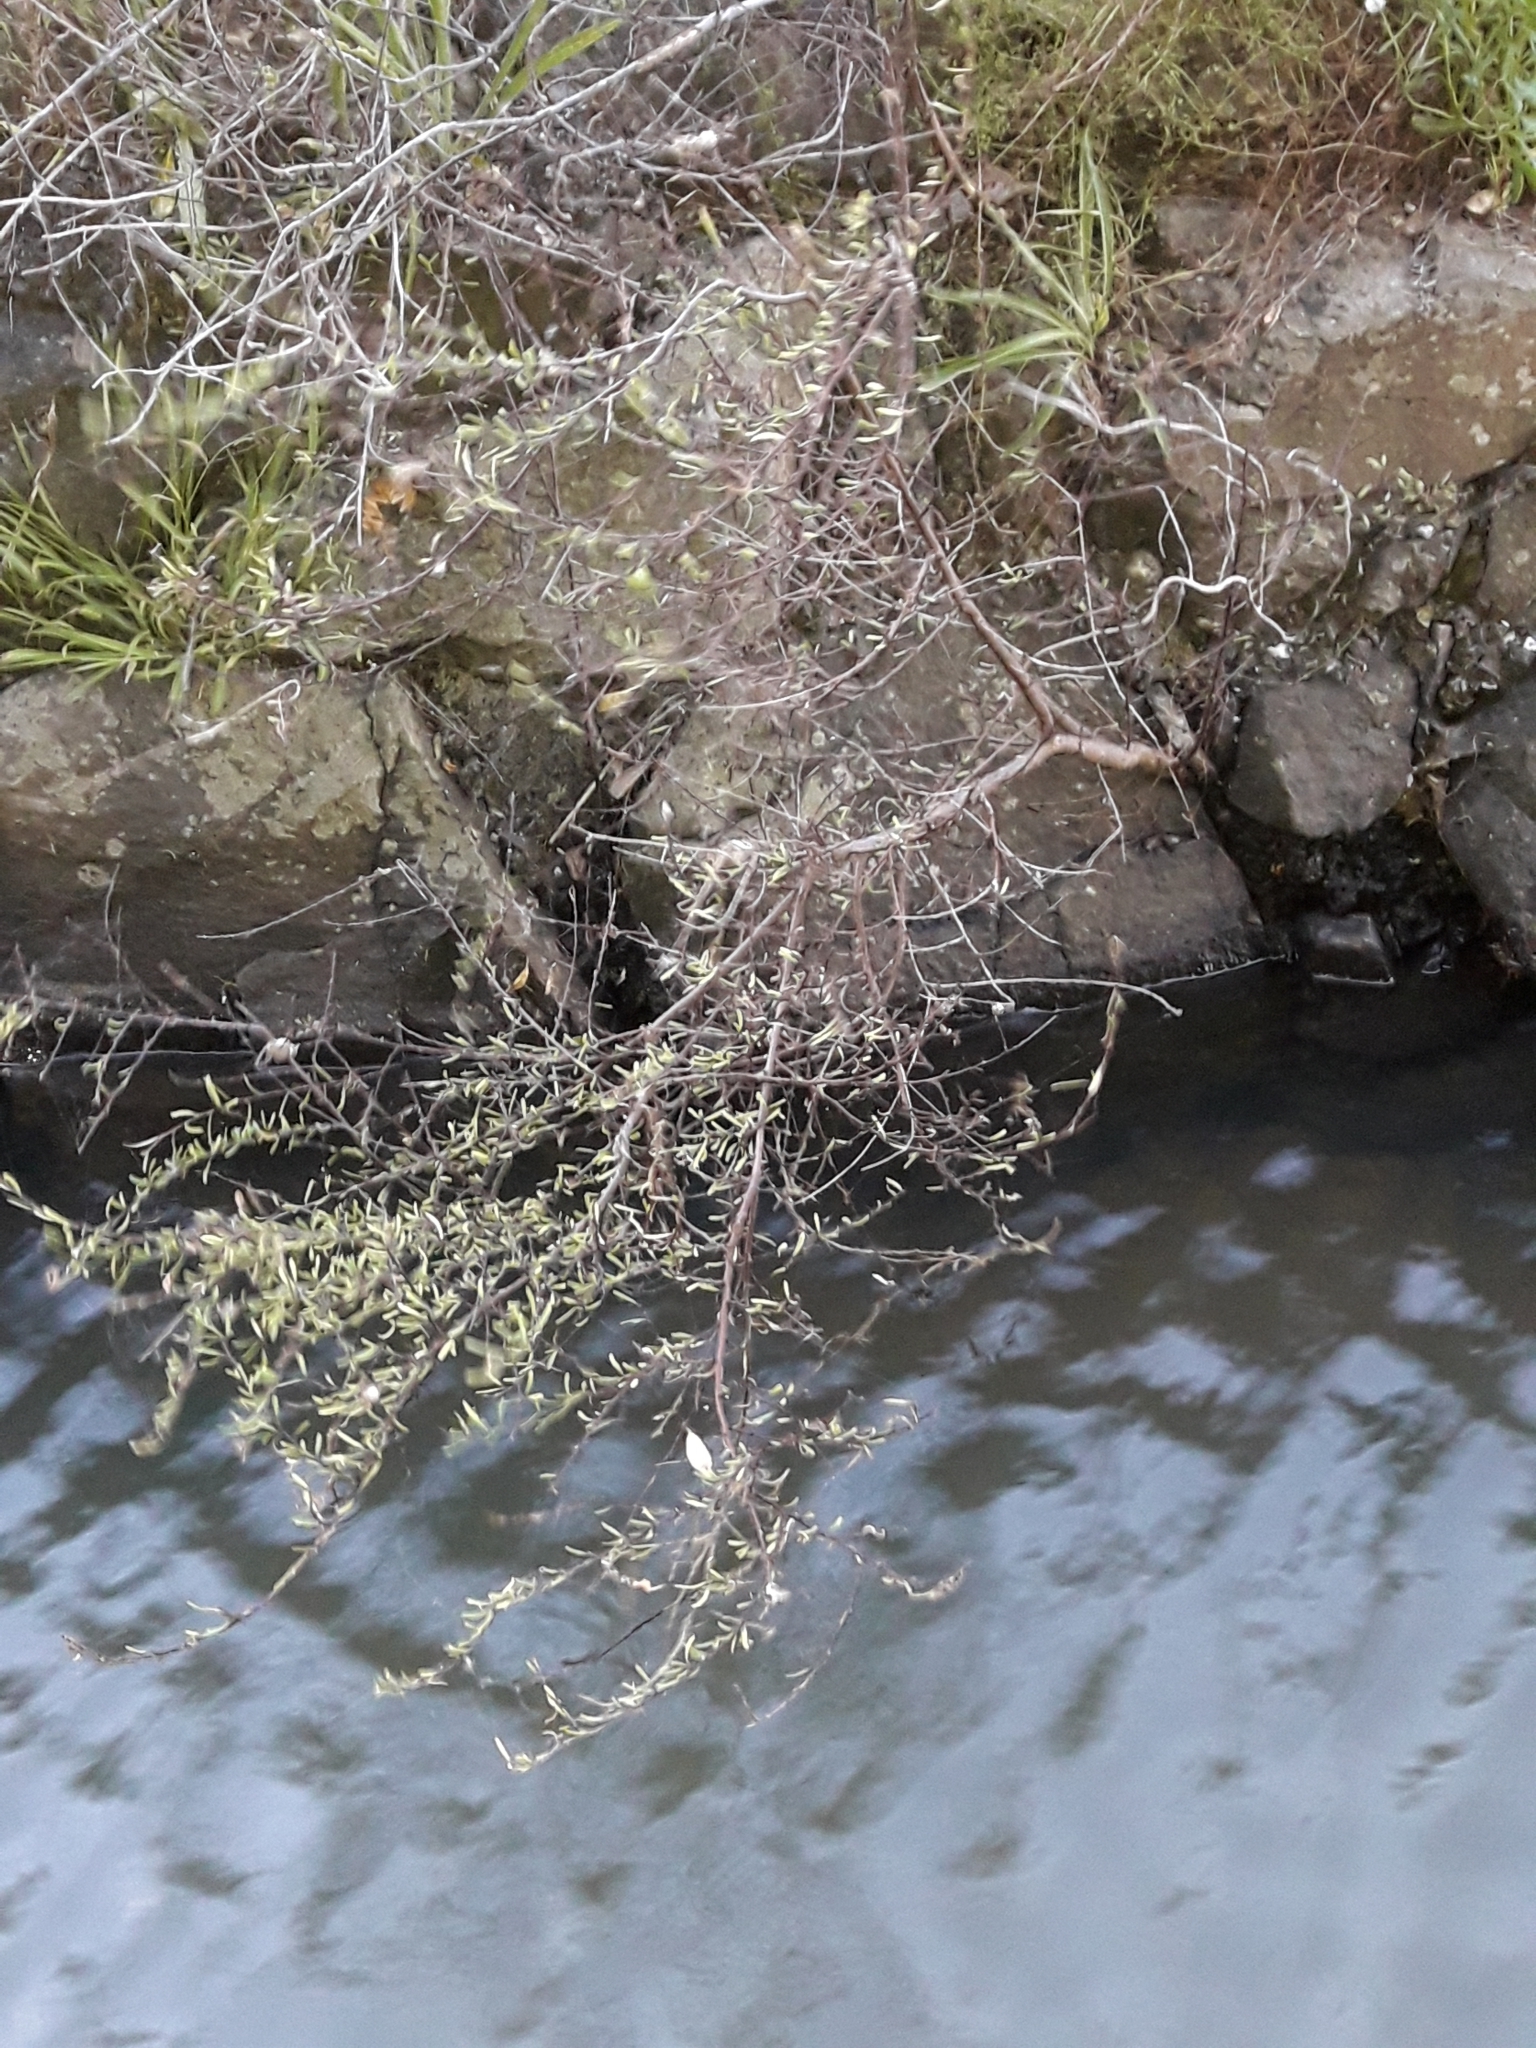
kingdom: Plantae
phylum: Tracheophyta
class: Magnoliopsida
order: Malvales
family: Malvaceae
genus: Plagianthus
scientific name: Plagianthus divaricatus
